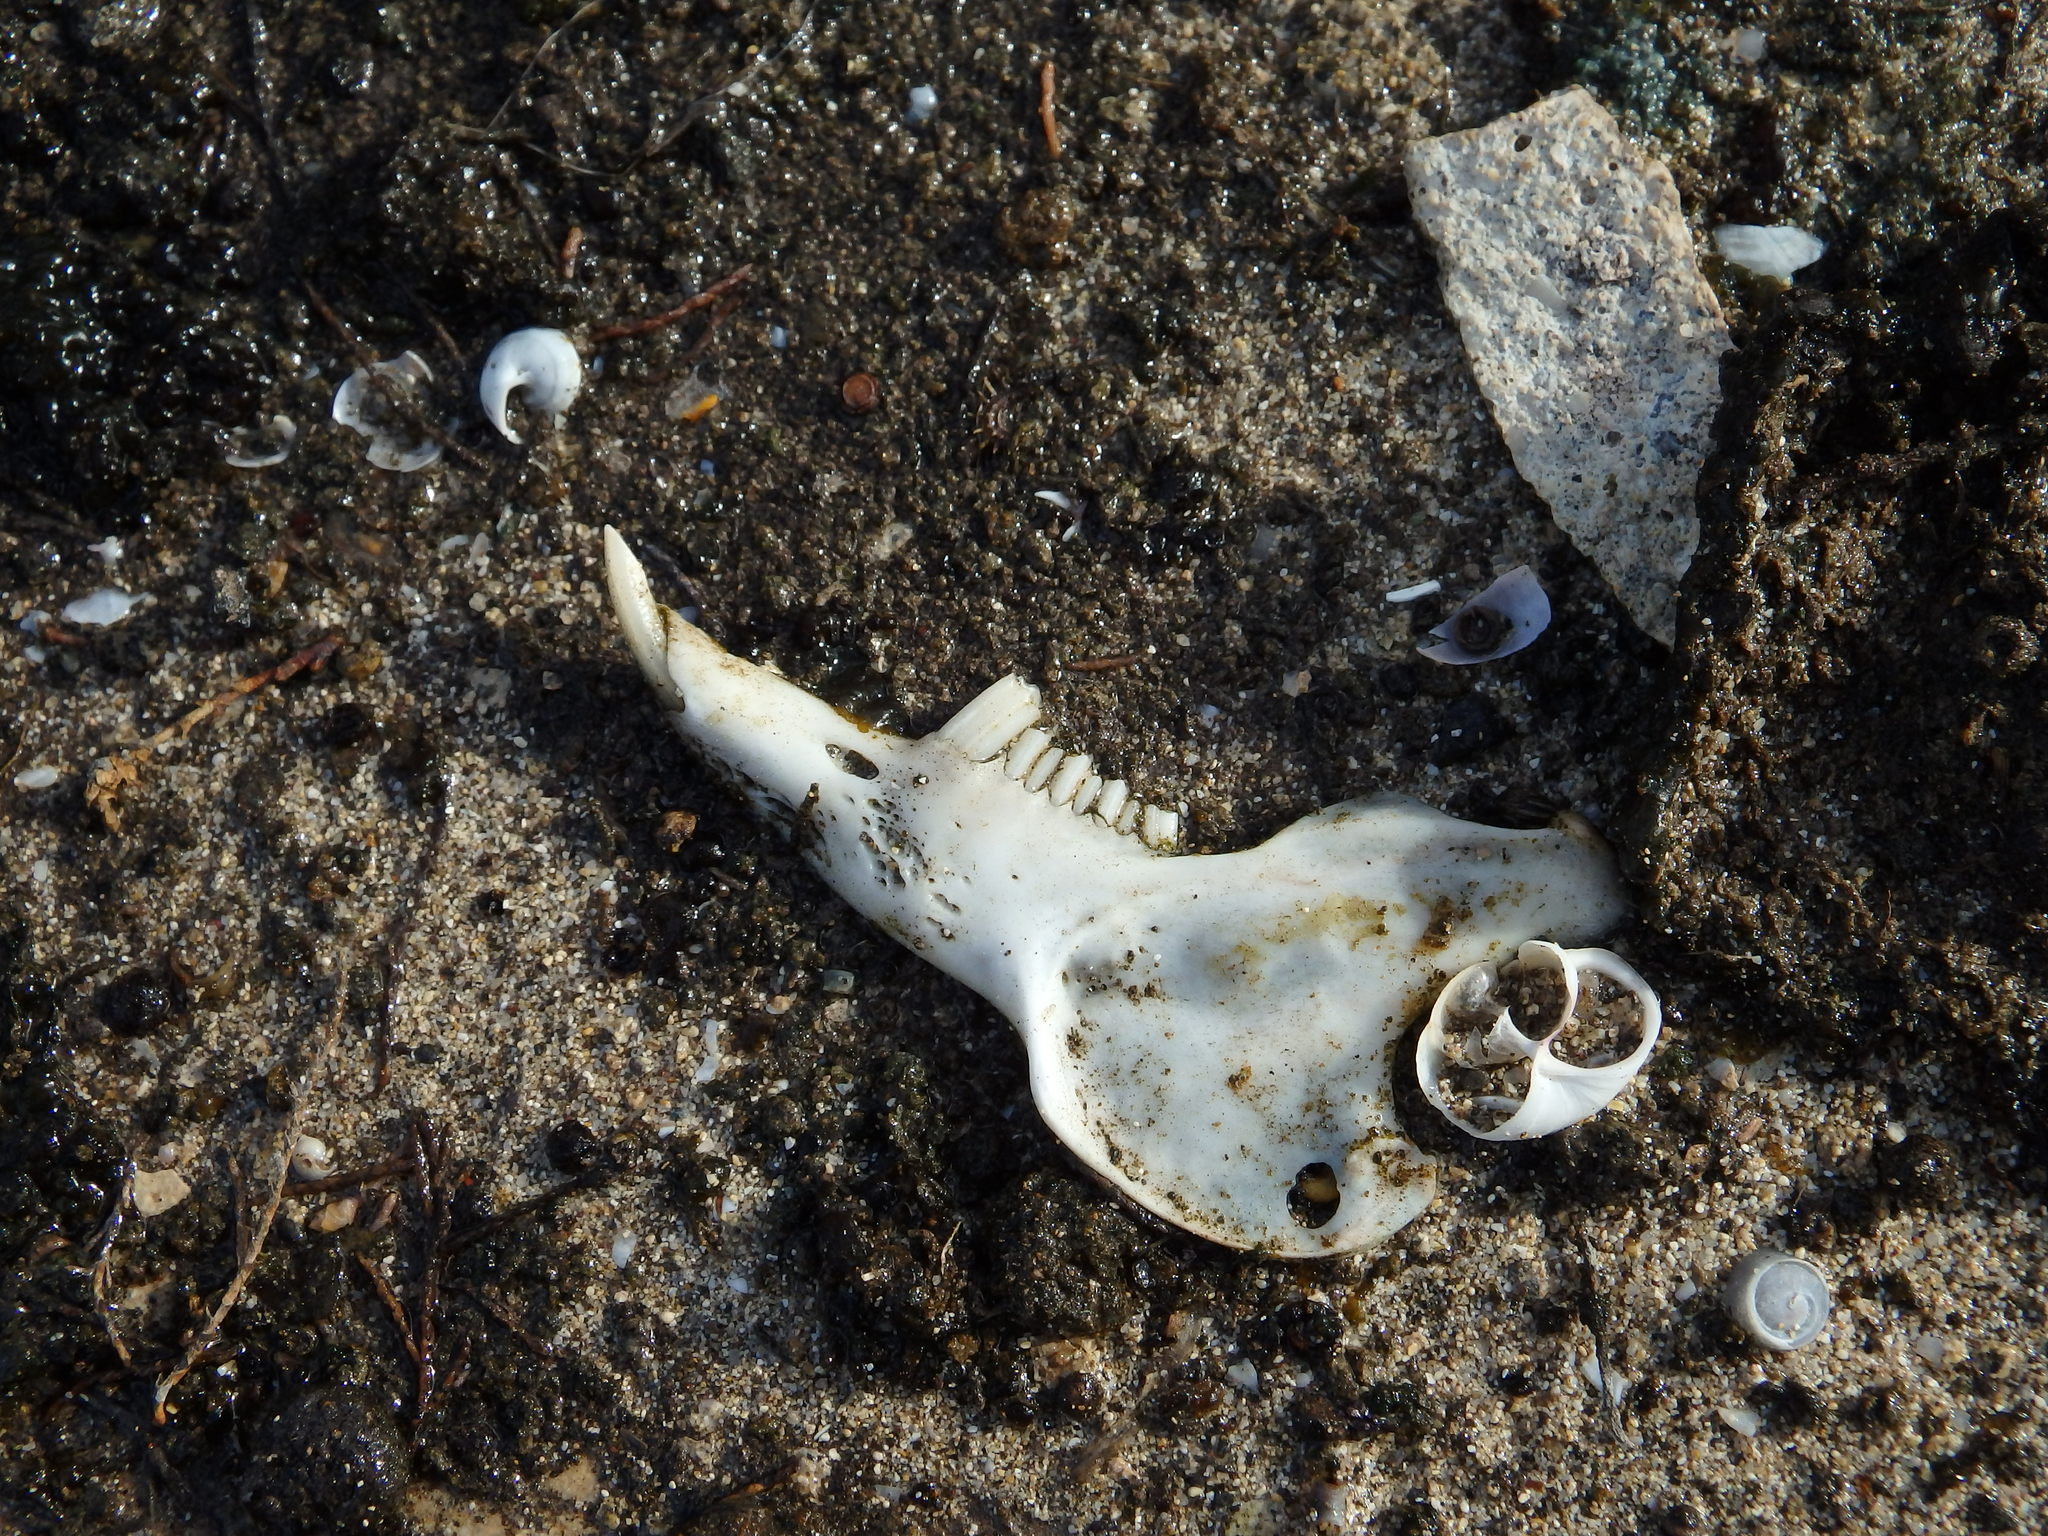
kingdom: Animalia
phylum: Chordata
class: Mammalia
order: Lagomorpha
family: Leporidae
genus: Oryctolagus
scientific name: Oryctolagus cuniculus
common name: European rabbit
